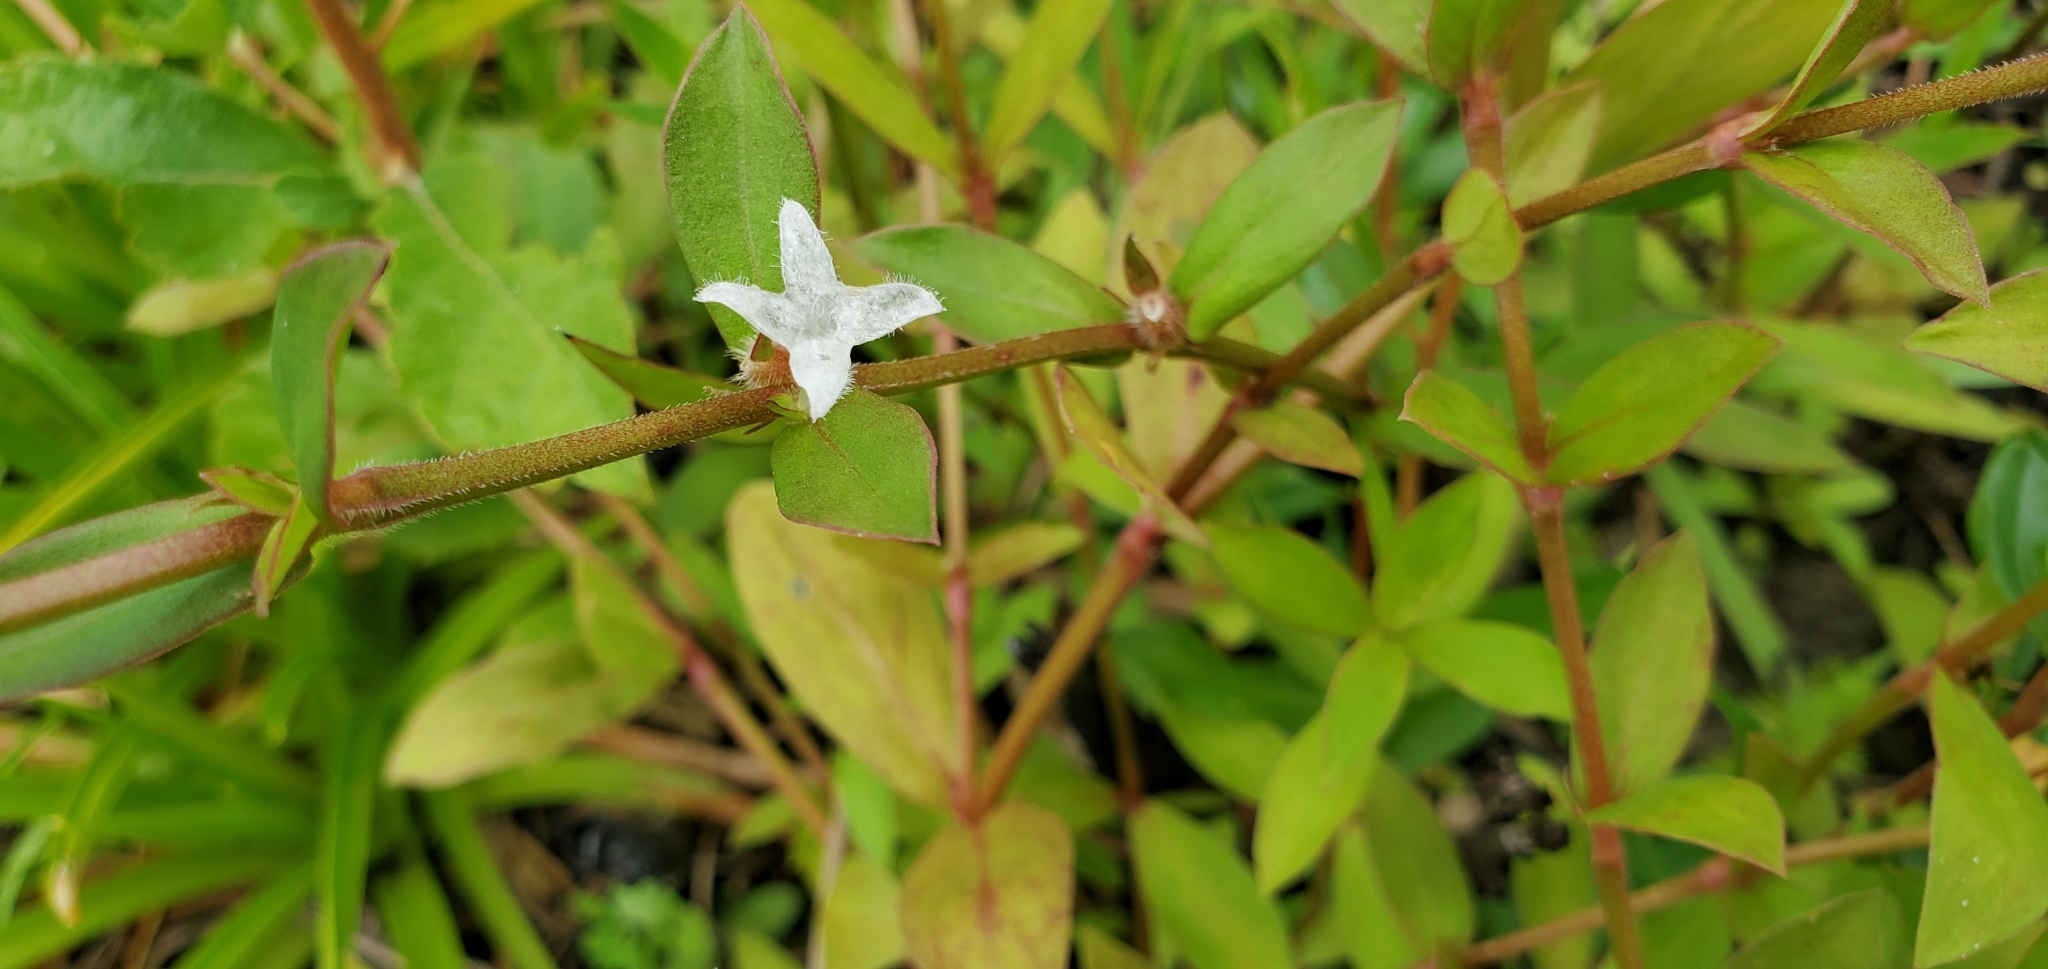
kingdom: Plantae
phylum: Tracheophyta
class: Magnoliopsida
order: Gentianales
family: Rubiaceae
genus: Diodia
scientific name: Diodia virginiana
